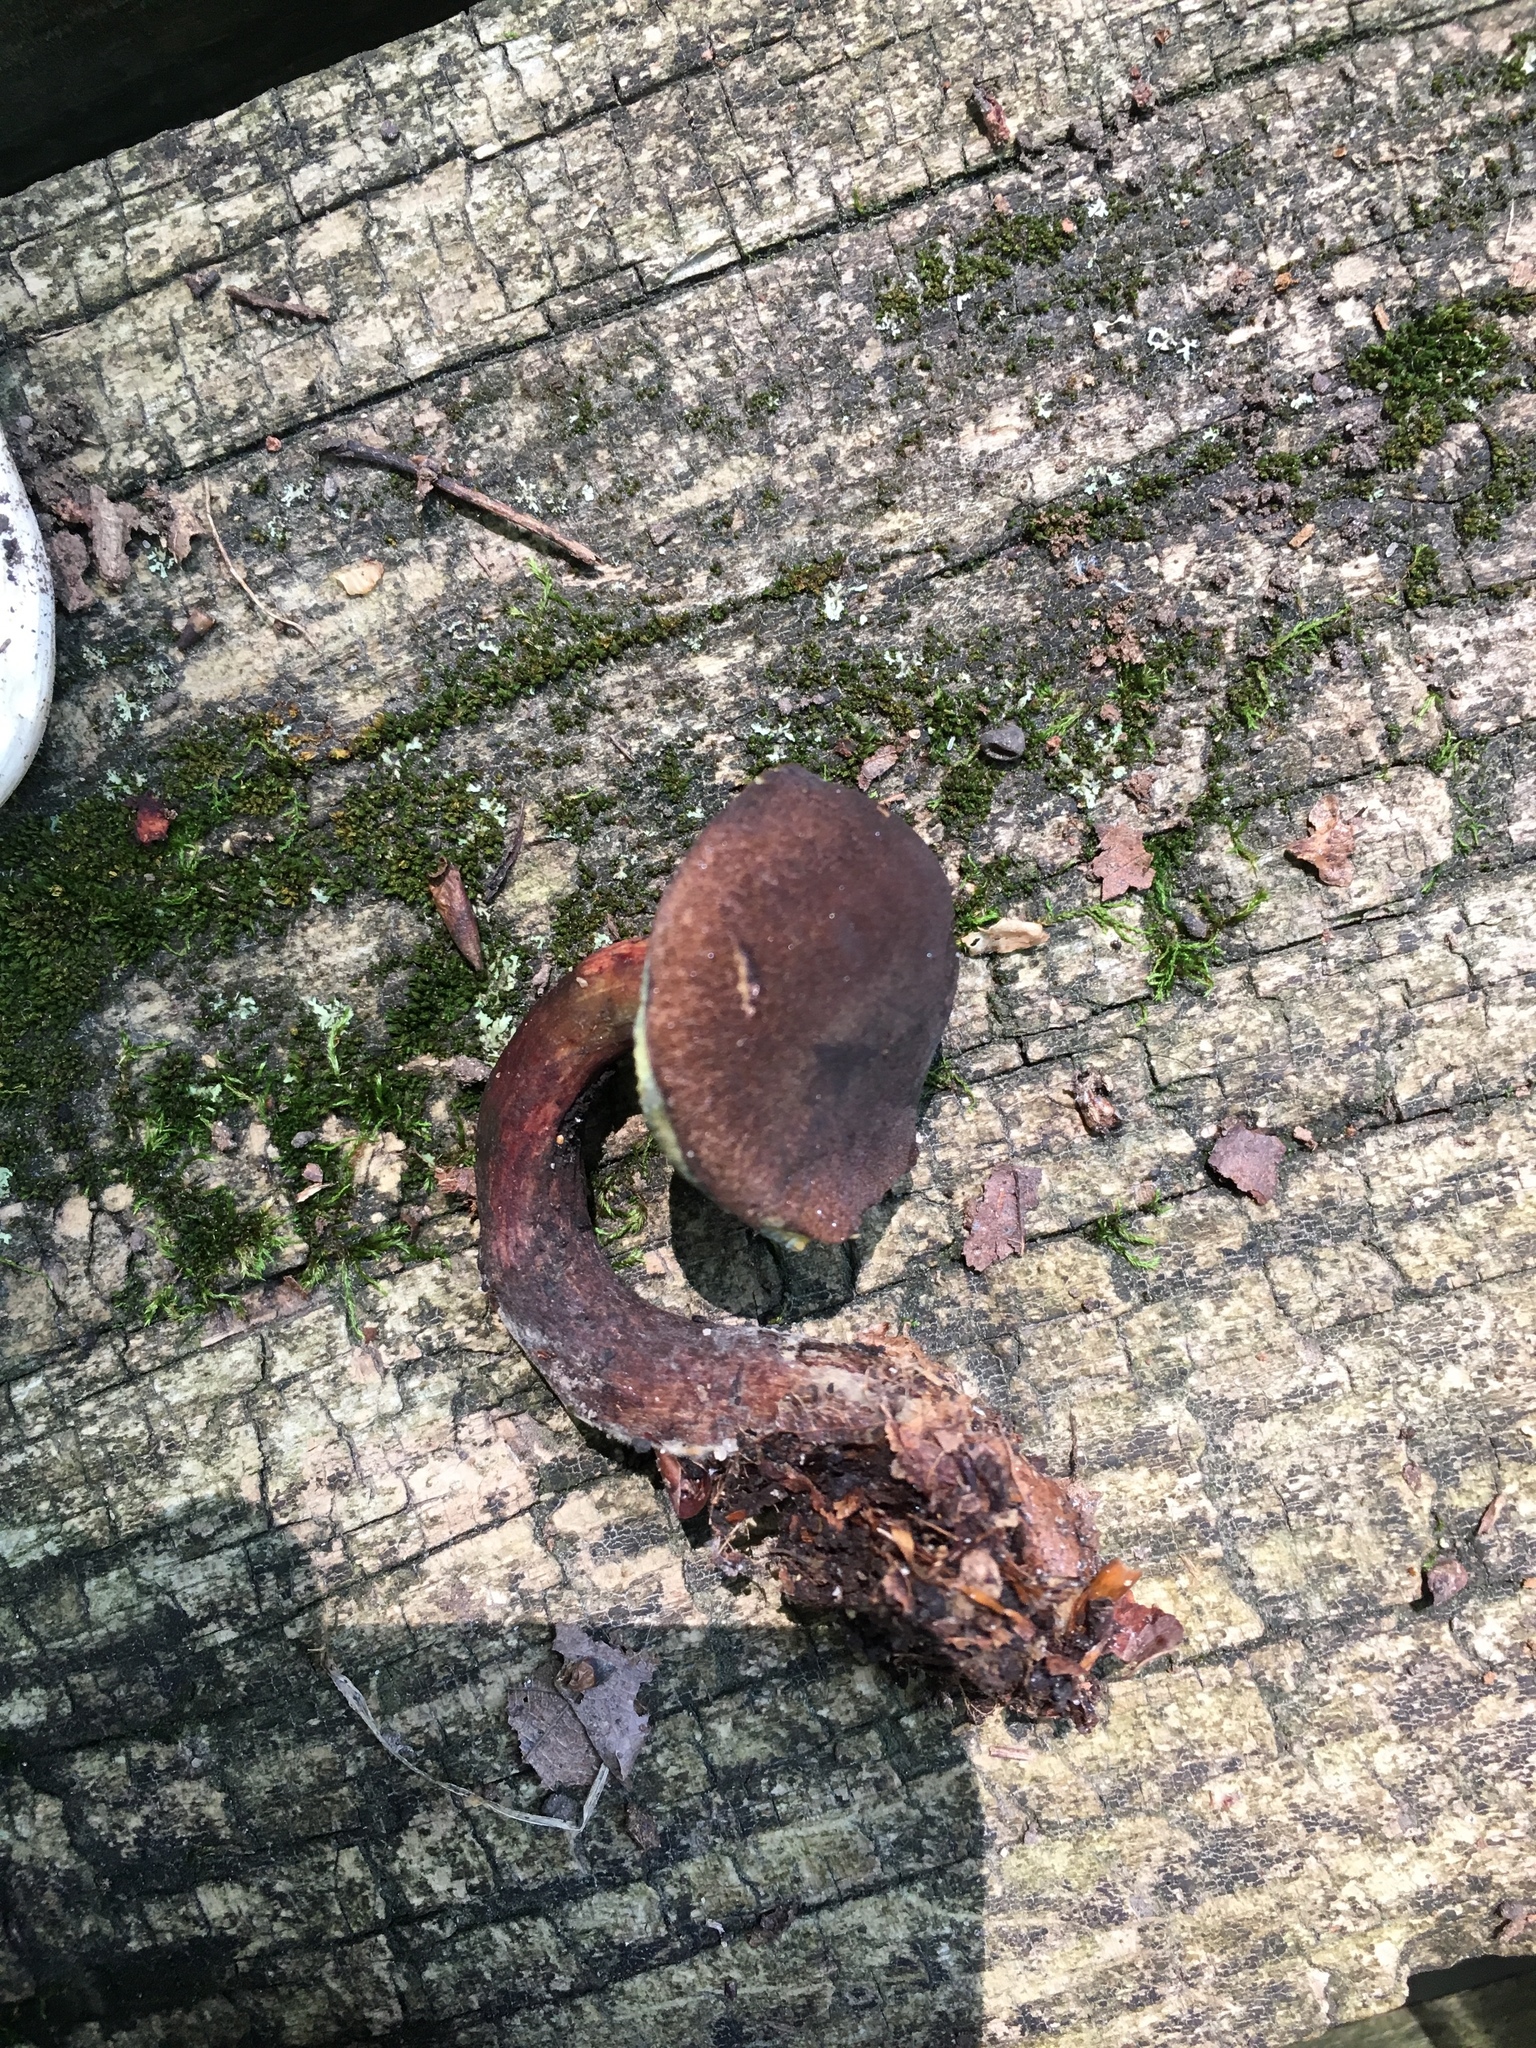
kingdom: Fungi
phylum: Basidiomycota
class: Agaricomycetes
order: Boletales
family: Boletaceae
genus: Boletellus
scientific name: Boletellus chrysenteroides
